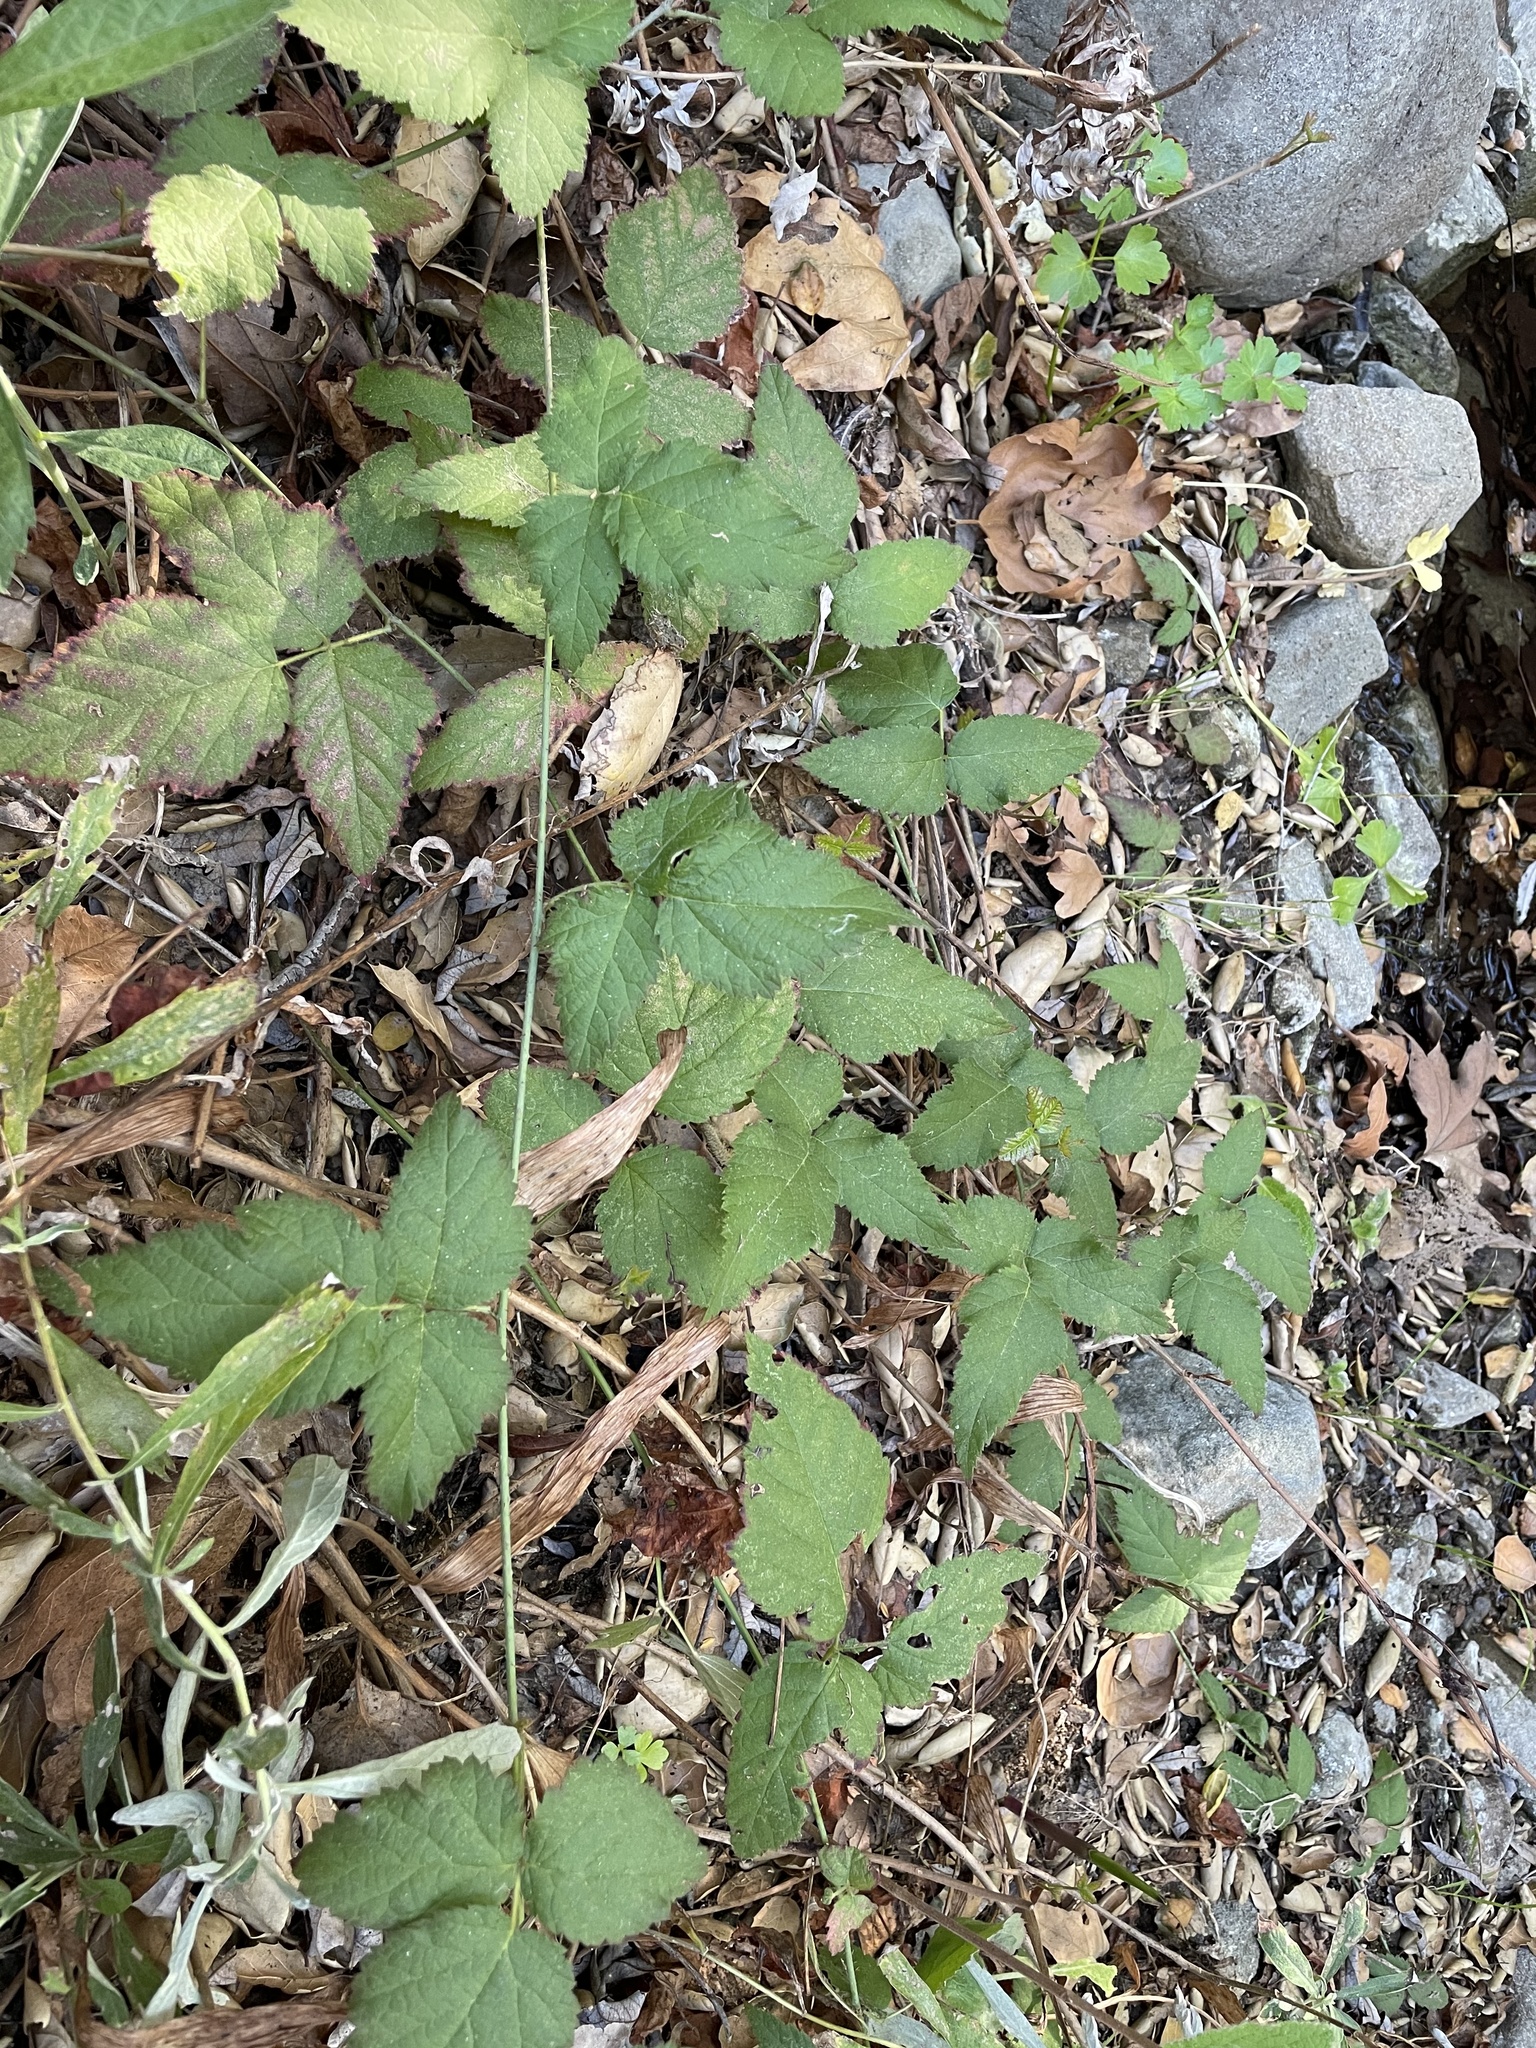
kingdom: Plantae
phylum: Tracheophyta
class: Magnoliopsida
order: Rosales
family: Rosaceae
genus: Rubus
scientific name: Rubus ursinus
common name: Pacific blackberry
